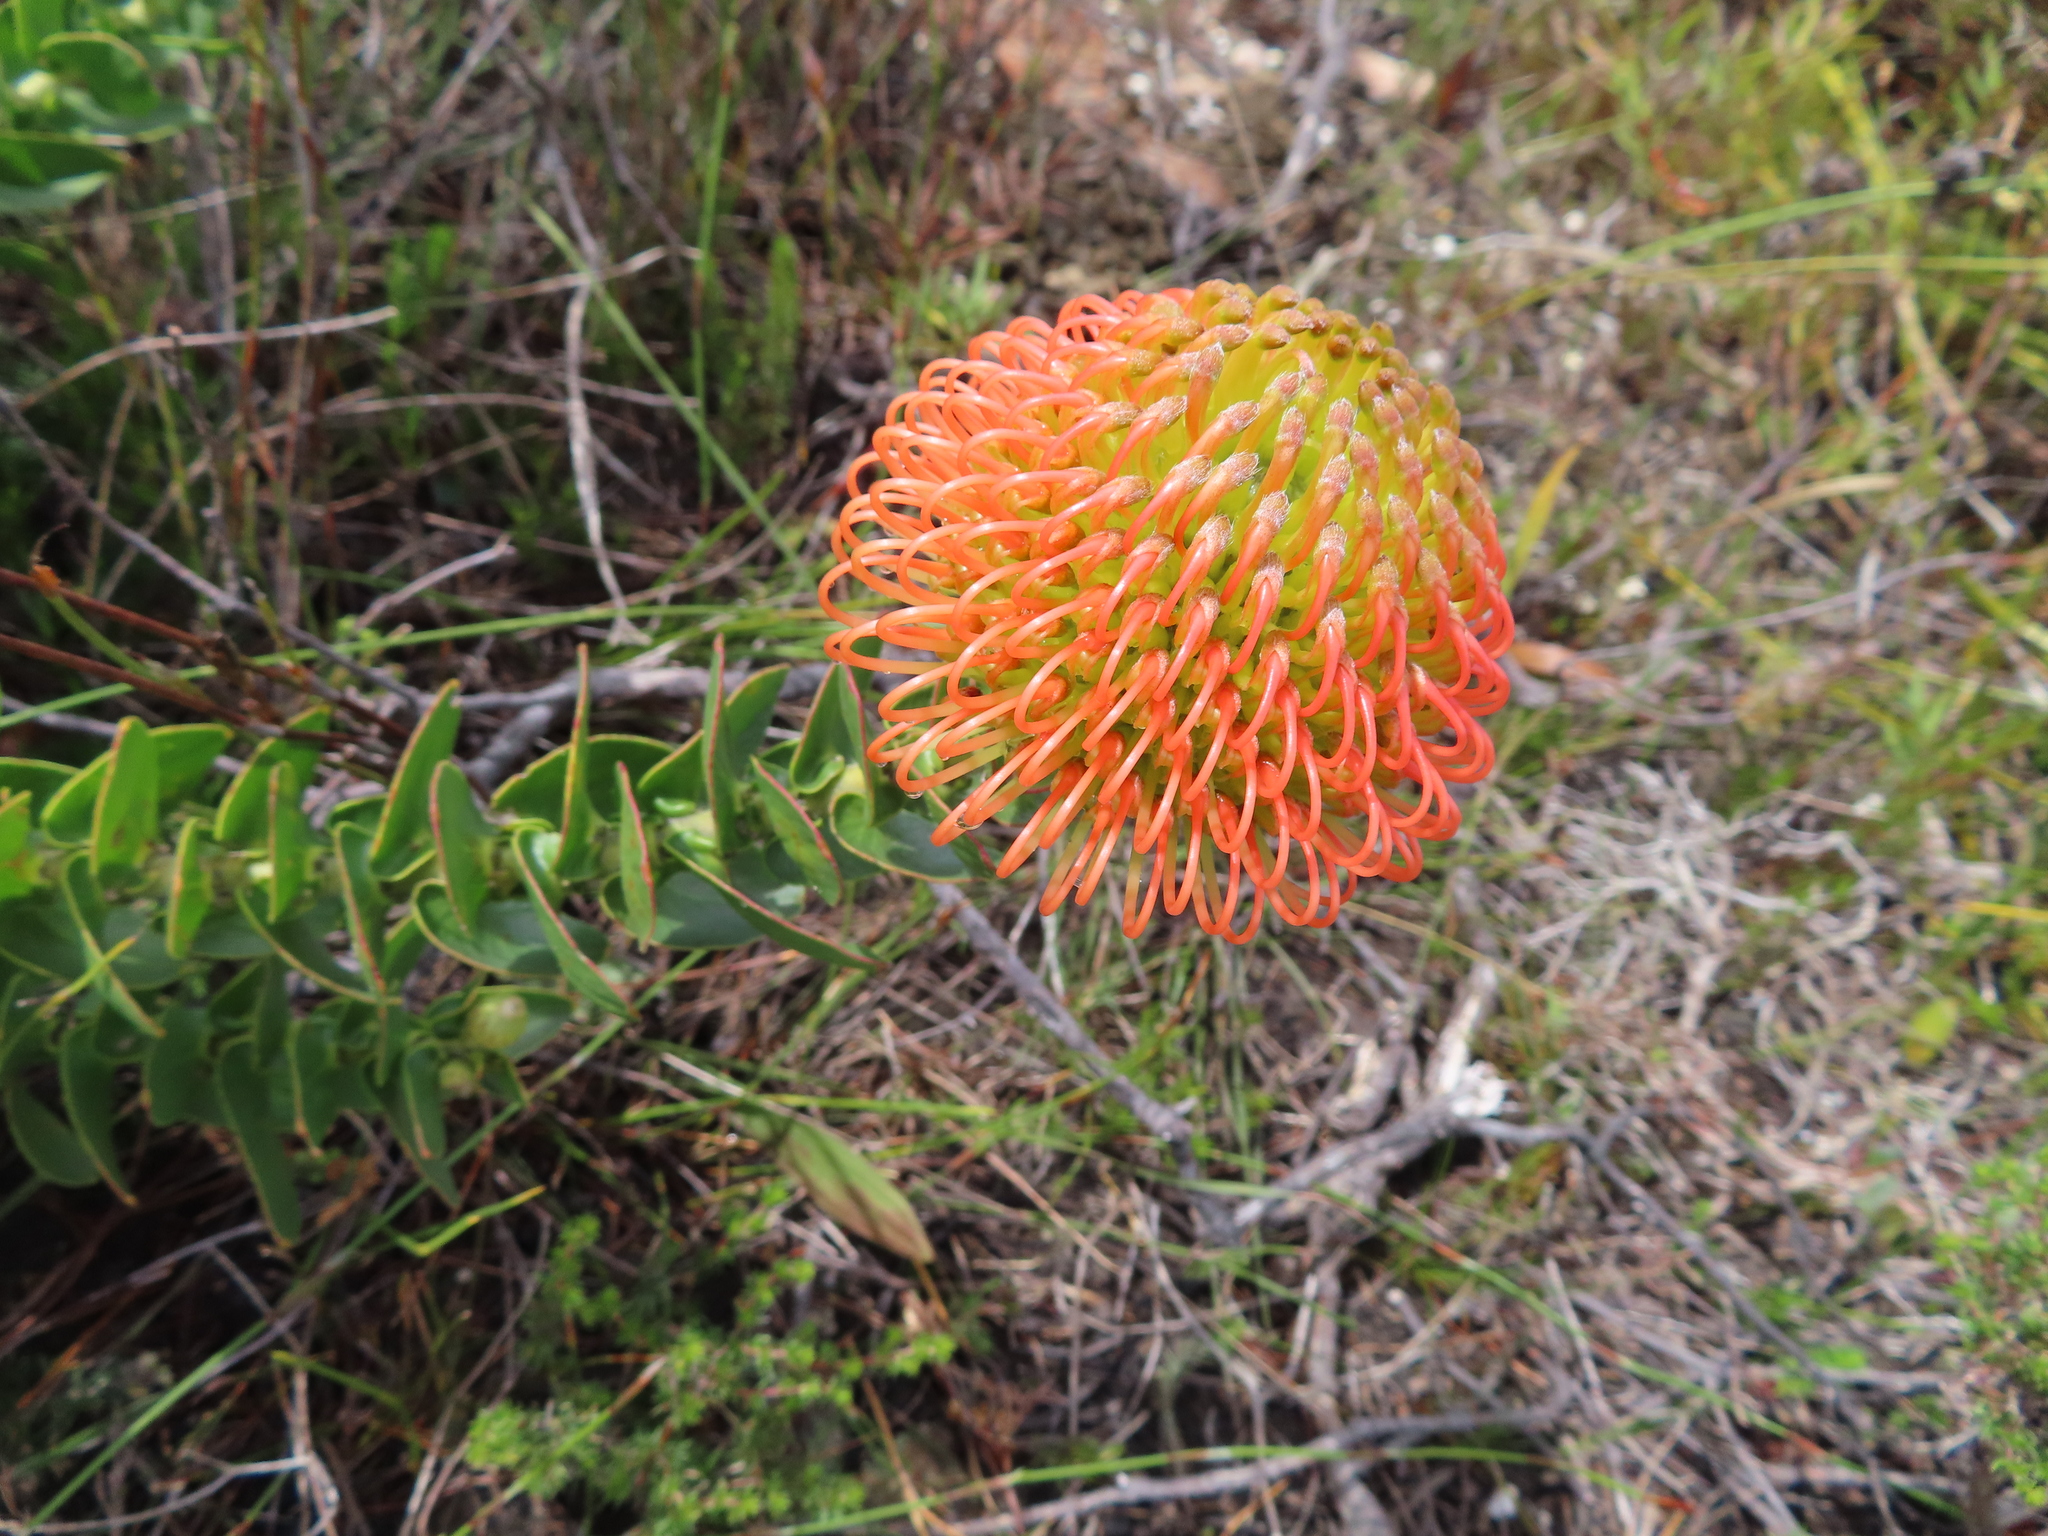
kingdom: Plantae
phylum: Tracheophyta
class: Magnoliopsida
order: Proteales
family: Proteaceae
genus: Leucospermum
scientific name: Leucospermum cordifolium
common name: Red pincushion-protea
